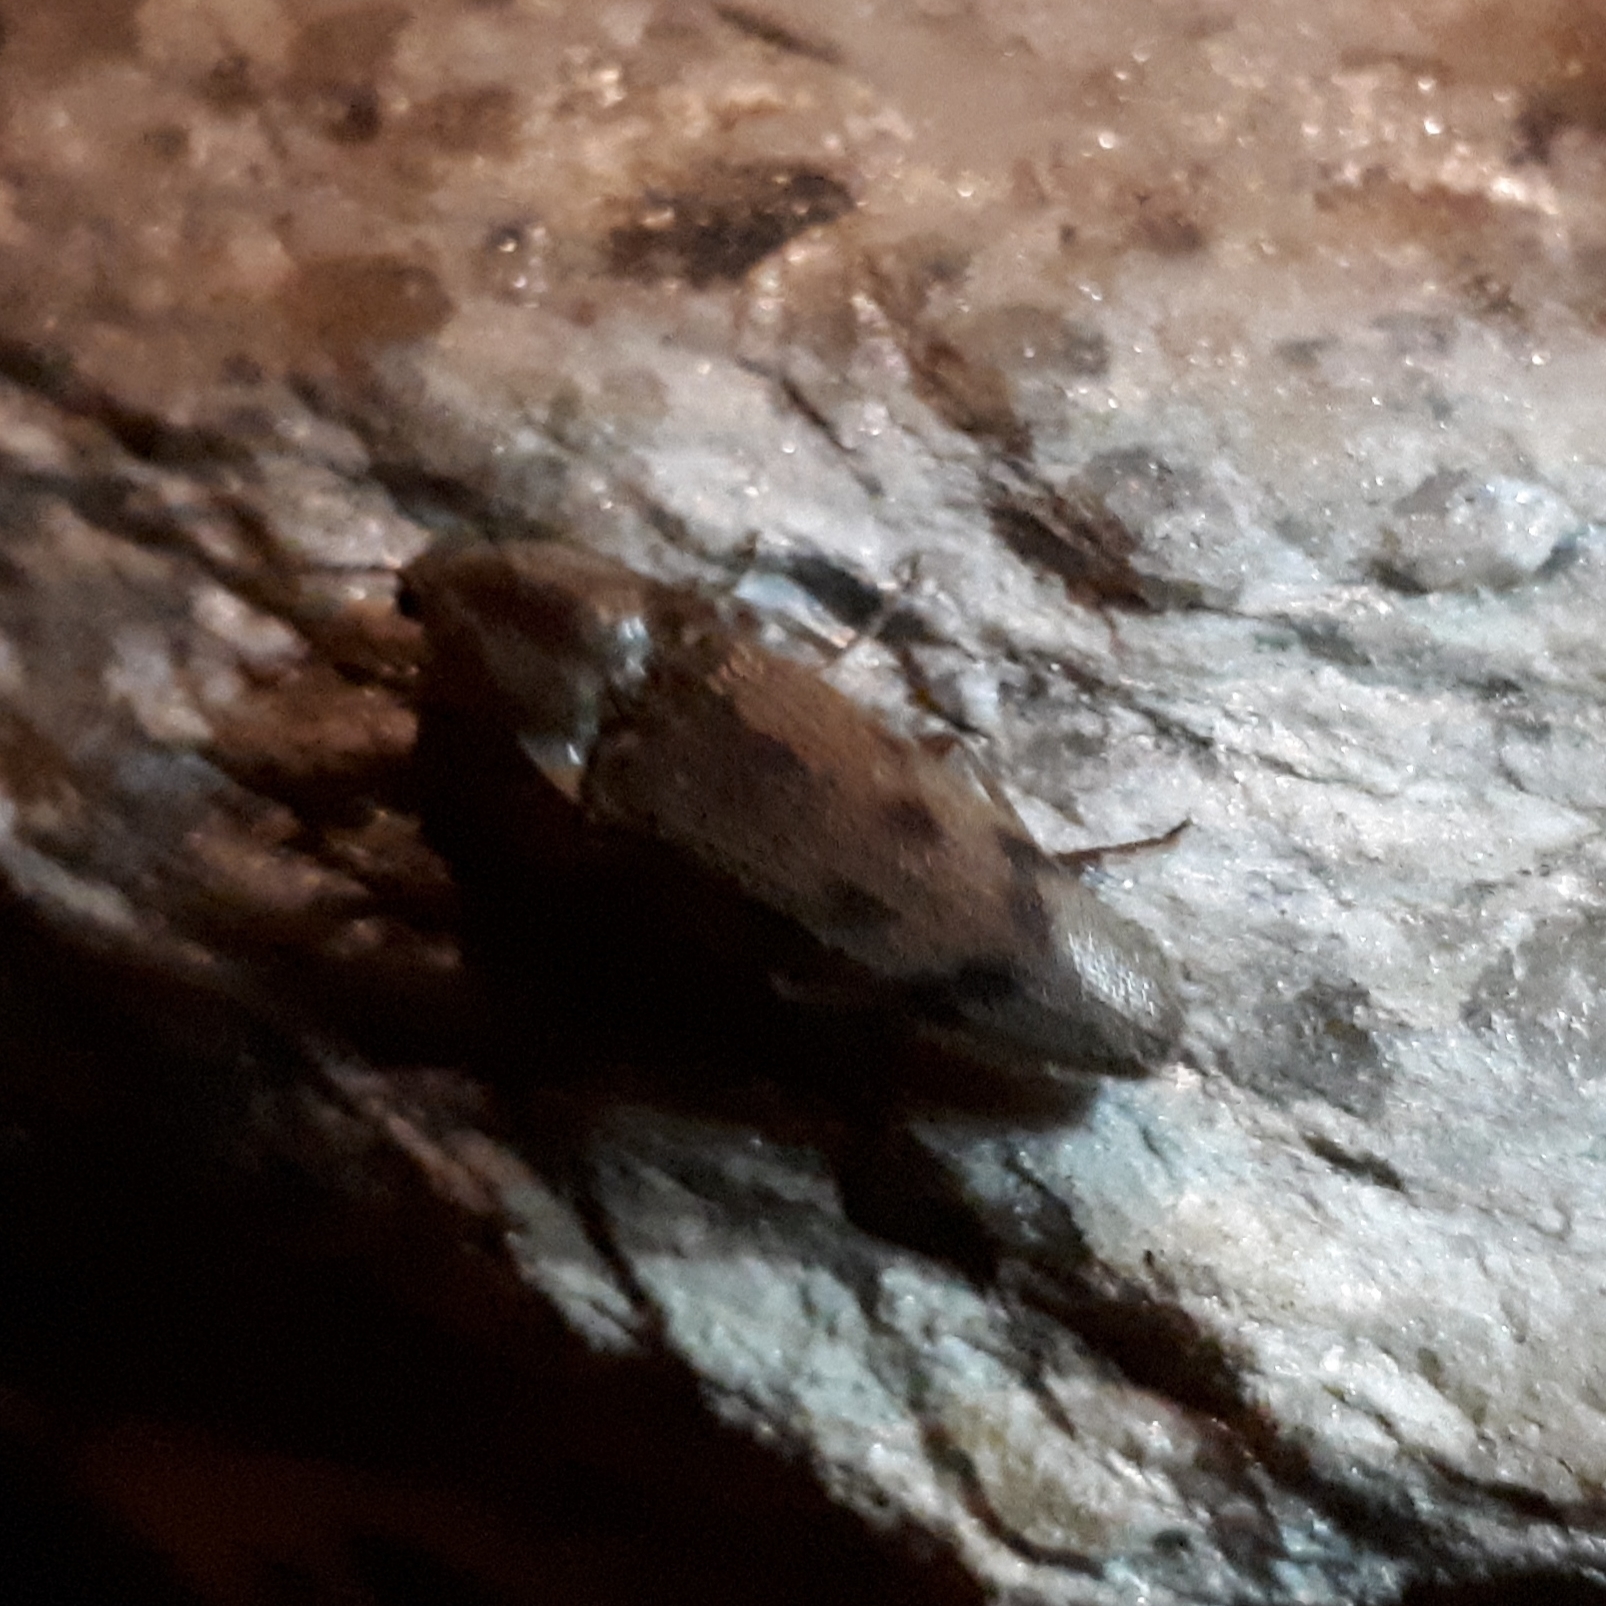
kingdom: Animalia
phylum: Arthropoda
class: Insecta
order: Coleoptera
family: Elateridae
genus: Monocrepidius
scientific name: Monocrepidius
